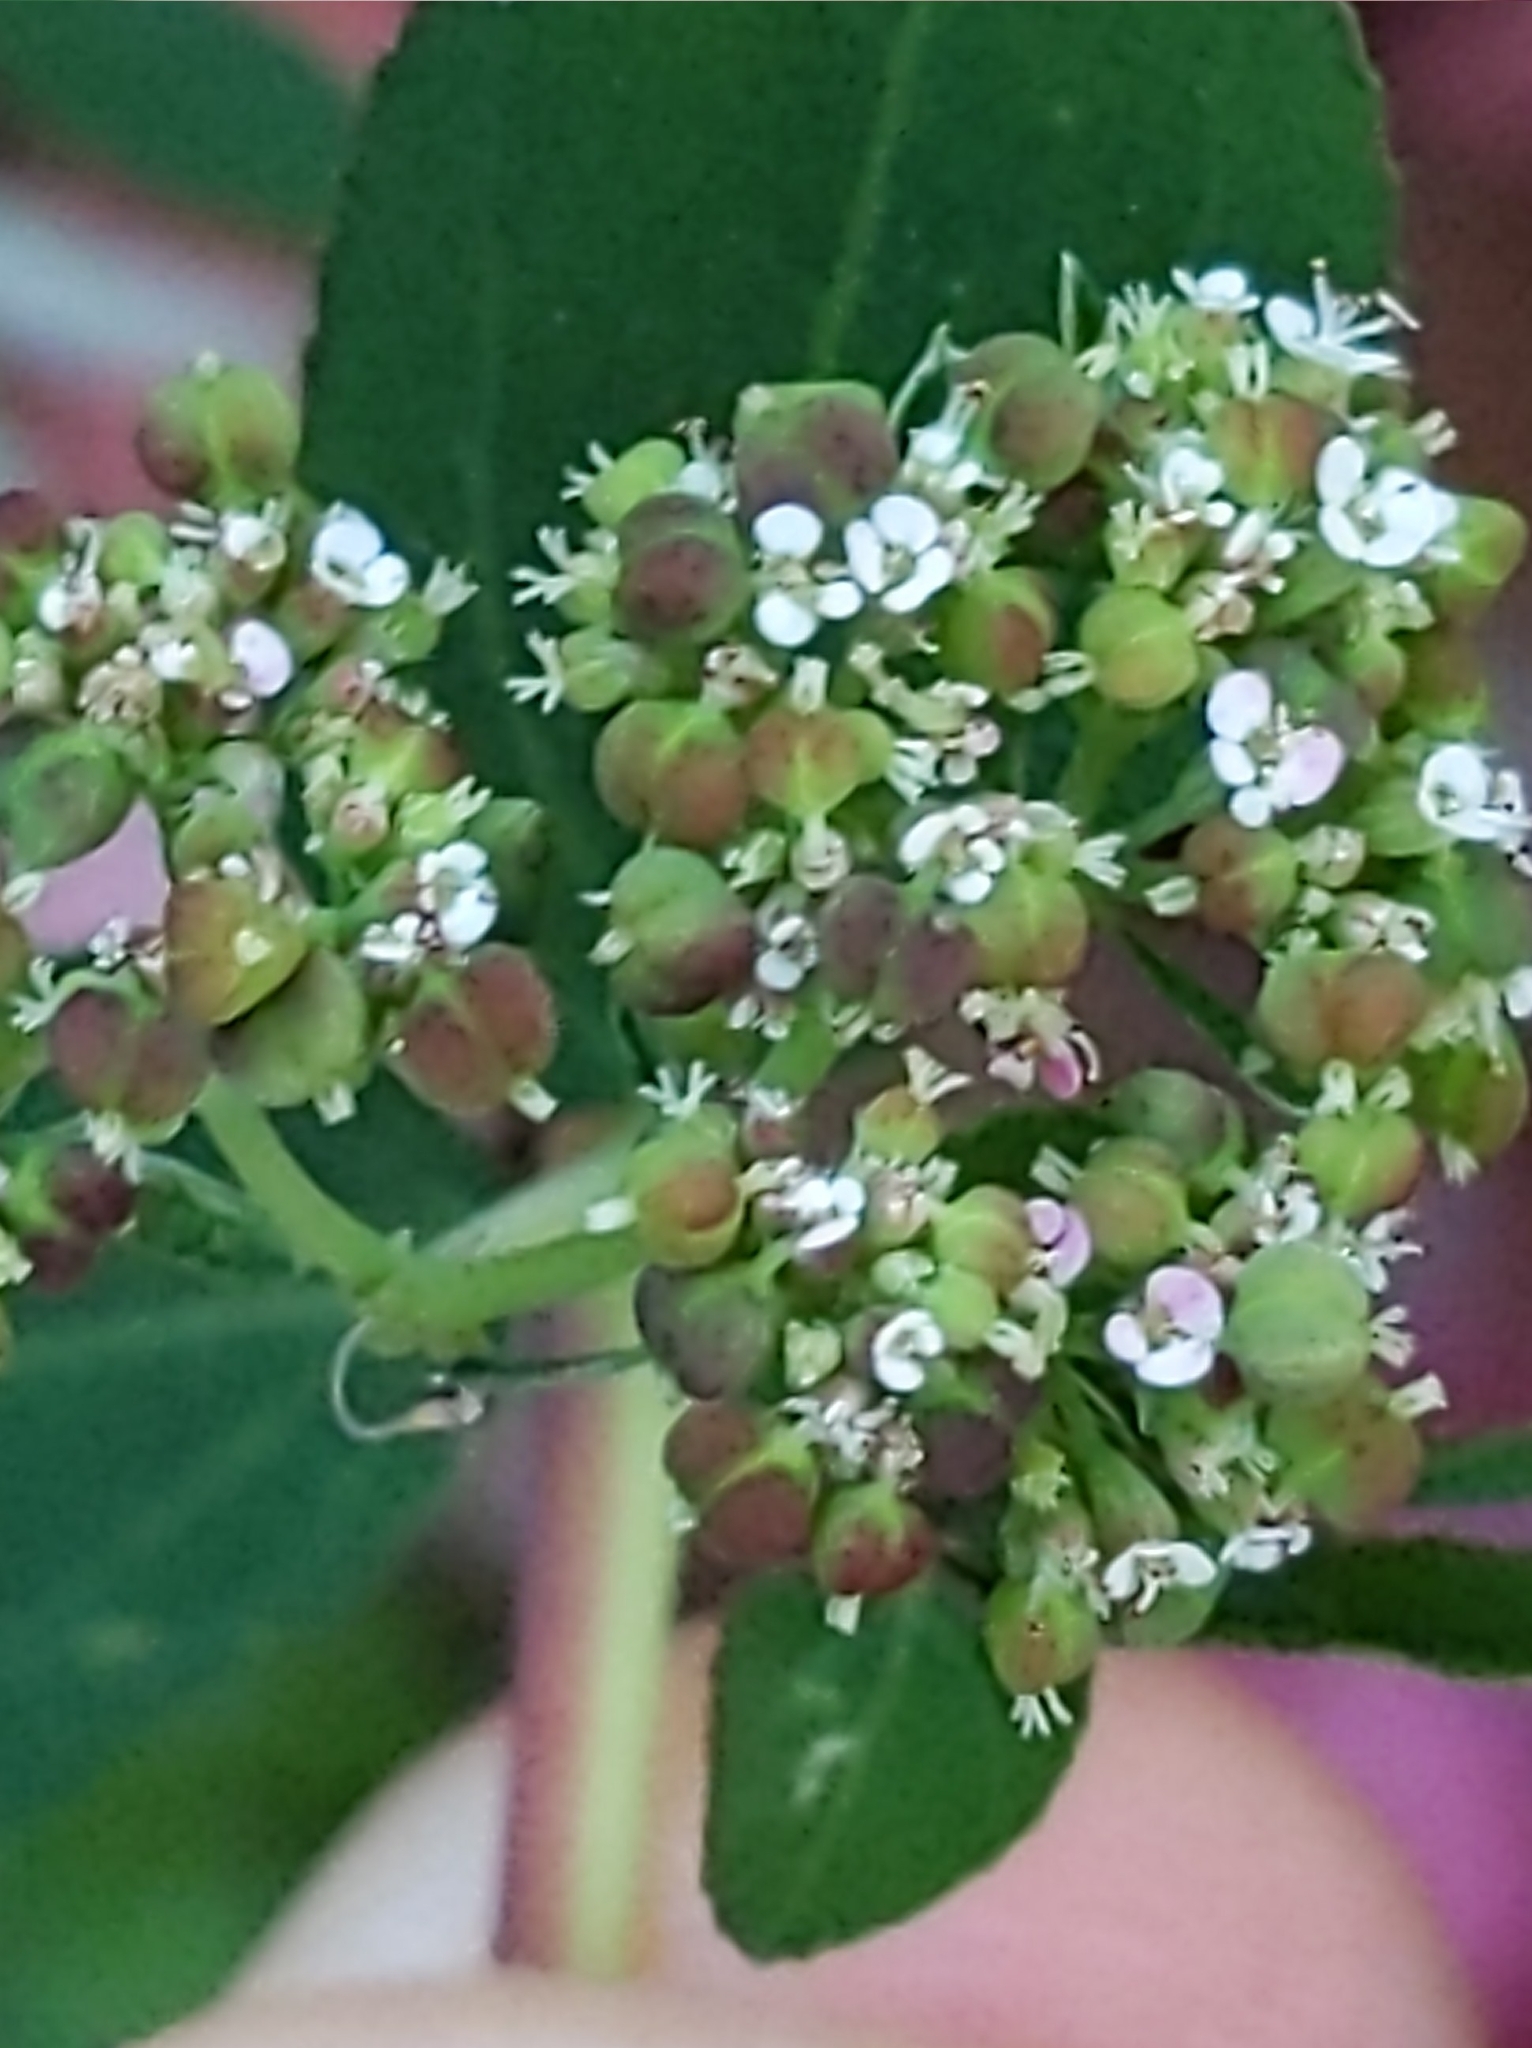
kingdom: Plantae
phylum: Tracheophyta
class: Magnoliopsida
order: Malpighiales
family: Euphorbiaceae
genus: Euphorbia
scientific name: Euphorbia hypericifolia
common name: Graceful sandmat
